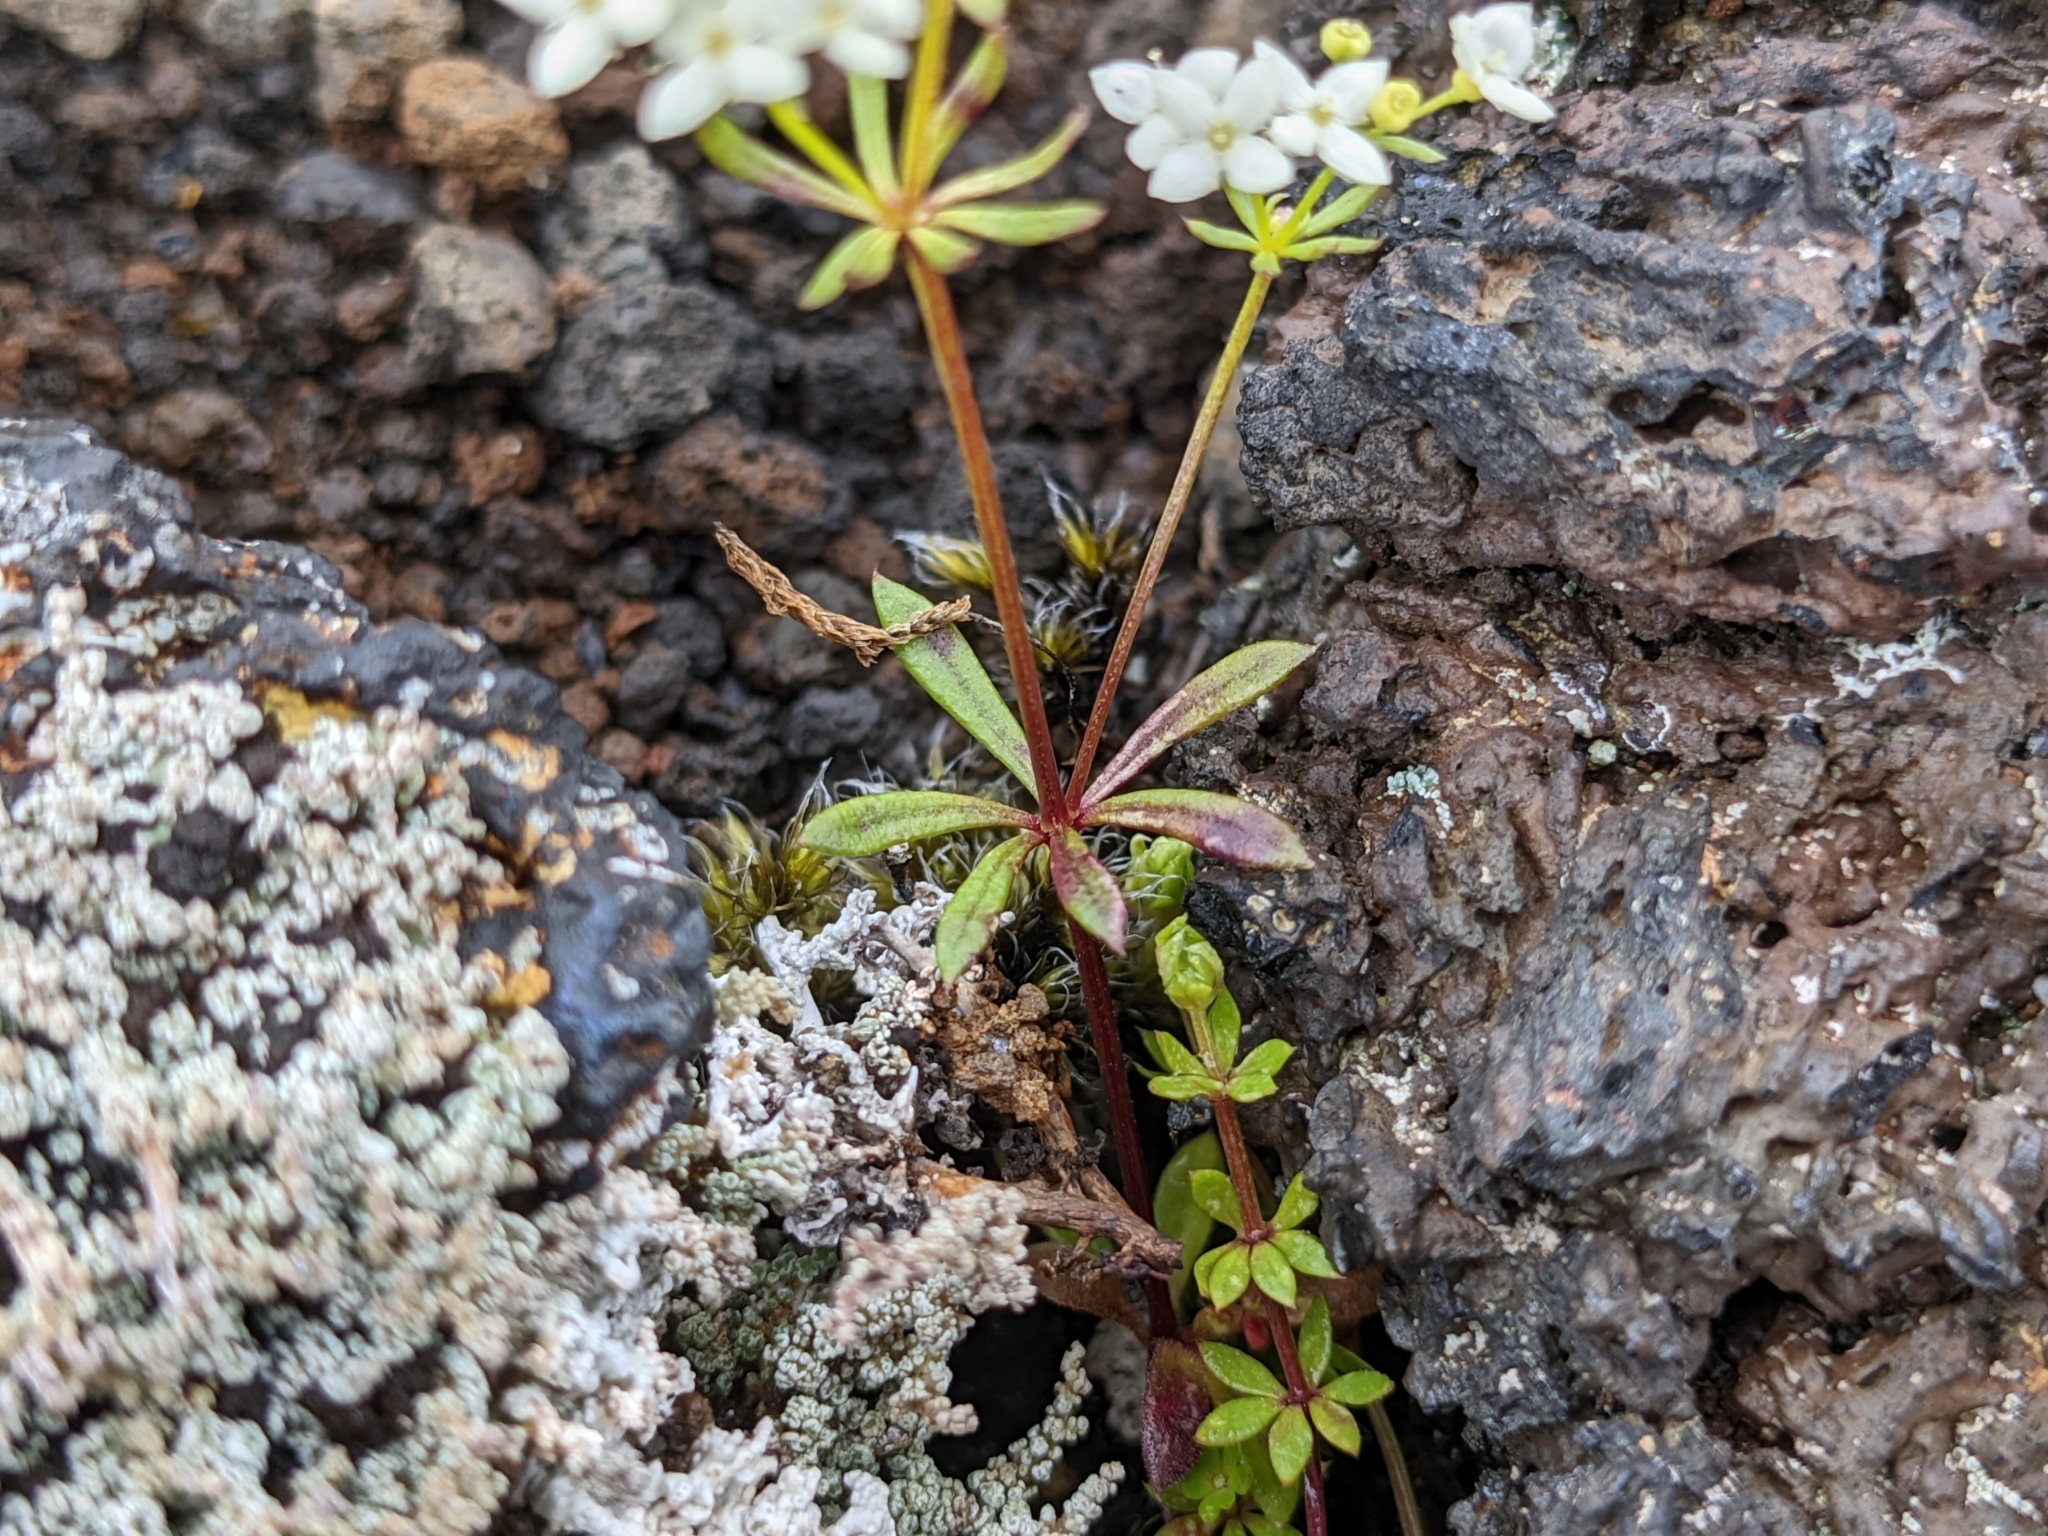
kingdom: Plantae
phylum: Tracheophyta
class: Magnoliopsida
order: Gentianales
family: Rubiaceae
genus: Galium
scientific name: Galium normanii
